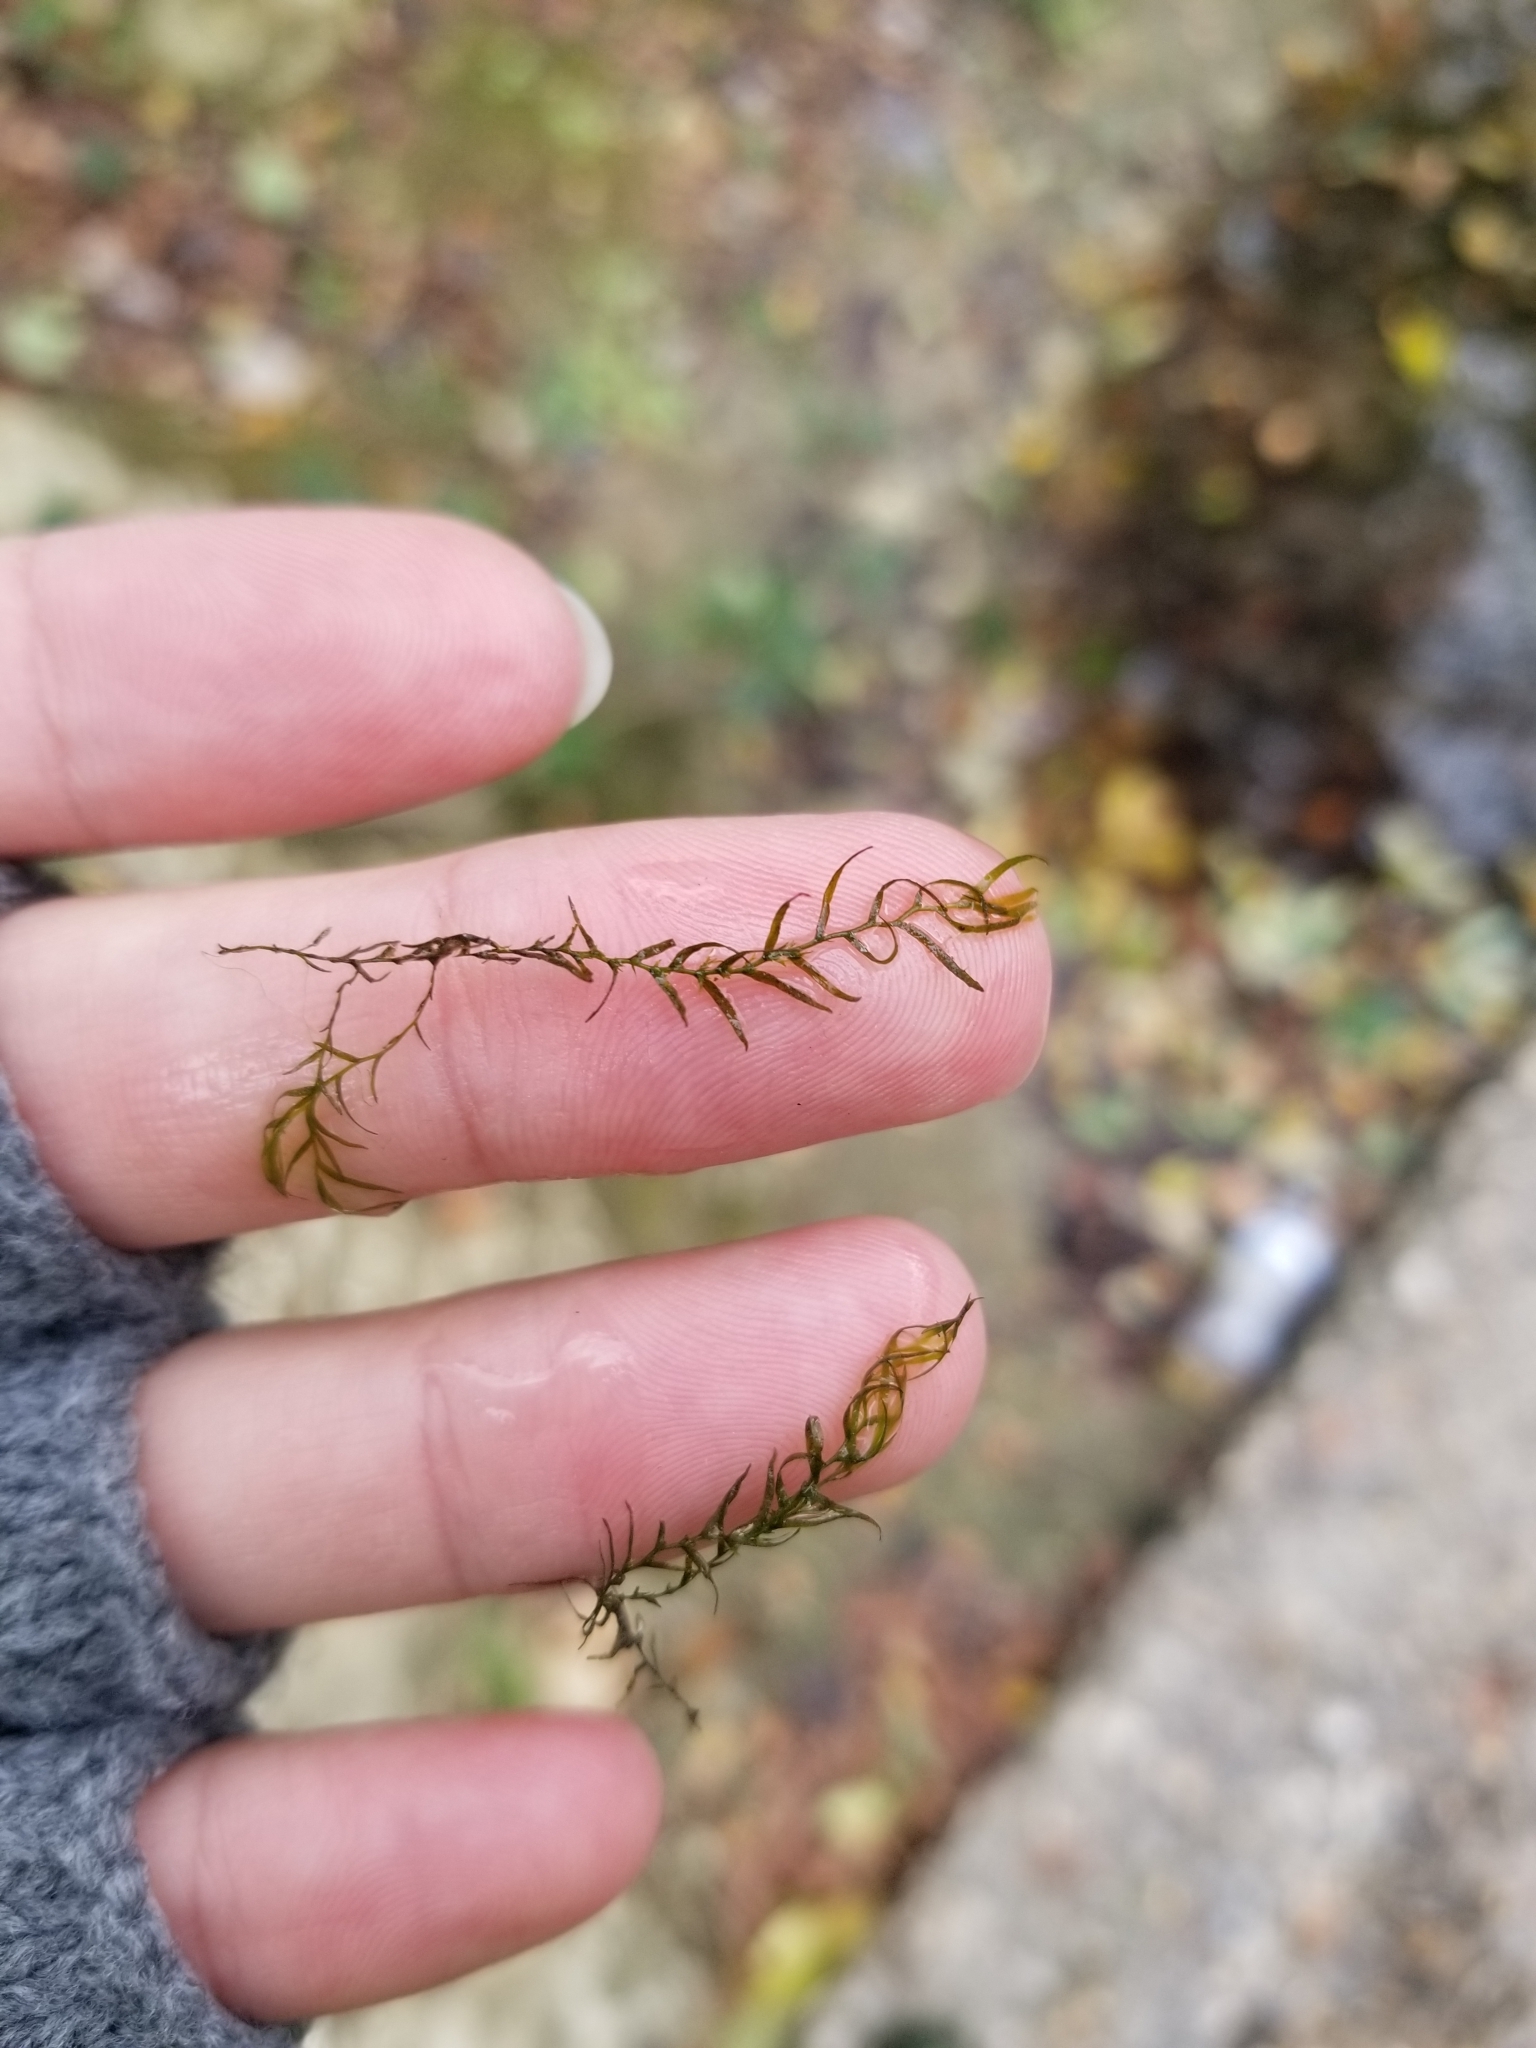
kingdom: Plantae
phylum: Bryophyta
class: Bryopsida
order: Dicranales
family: Fissidentaceae
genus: Fissidens
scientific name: Fissidens fontanus
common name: Fountain pocket-moss
